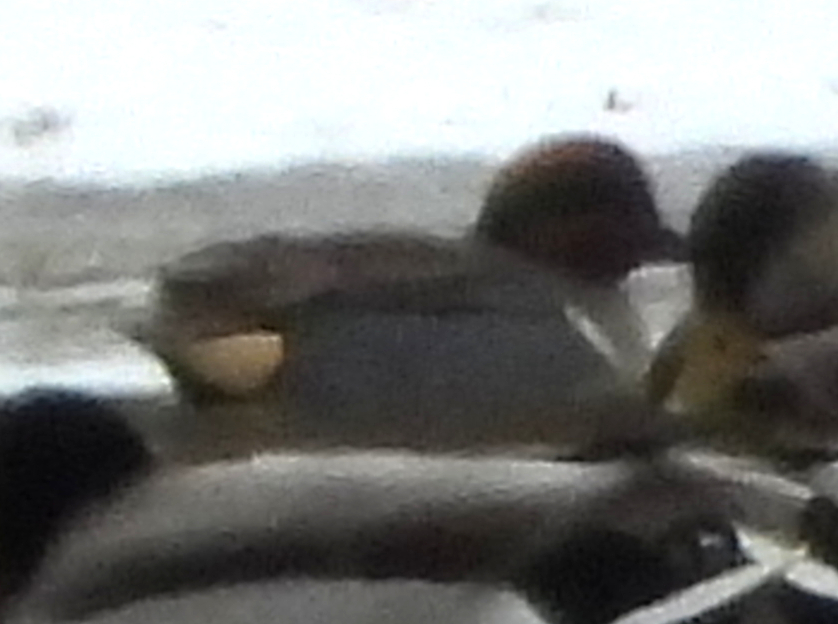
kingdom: Animalia
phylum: Chordata
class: Aves
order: Anseriformes
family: Anatidae
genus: Anas
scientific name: Anas crecca
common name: Eurasian teal
